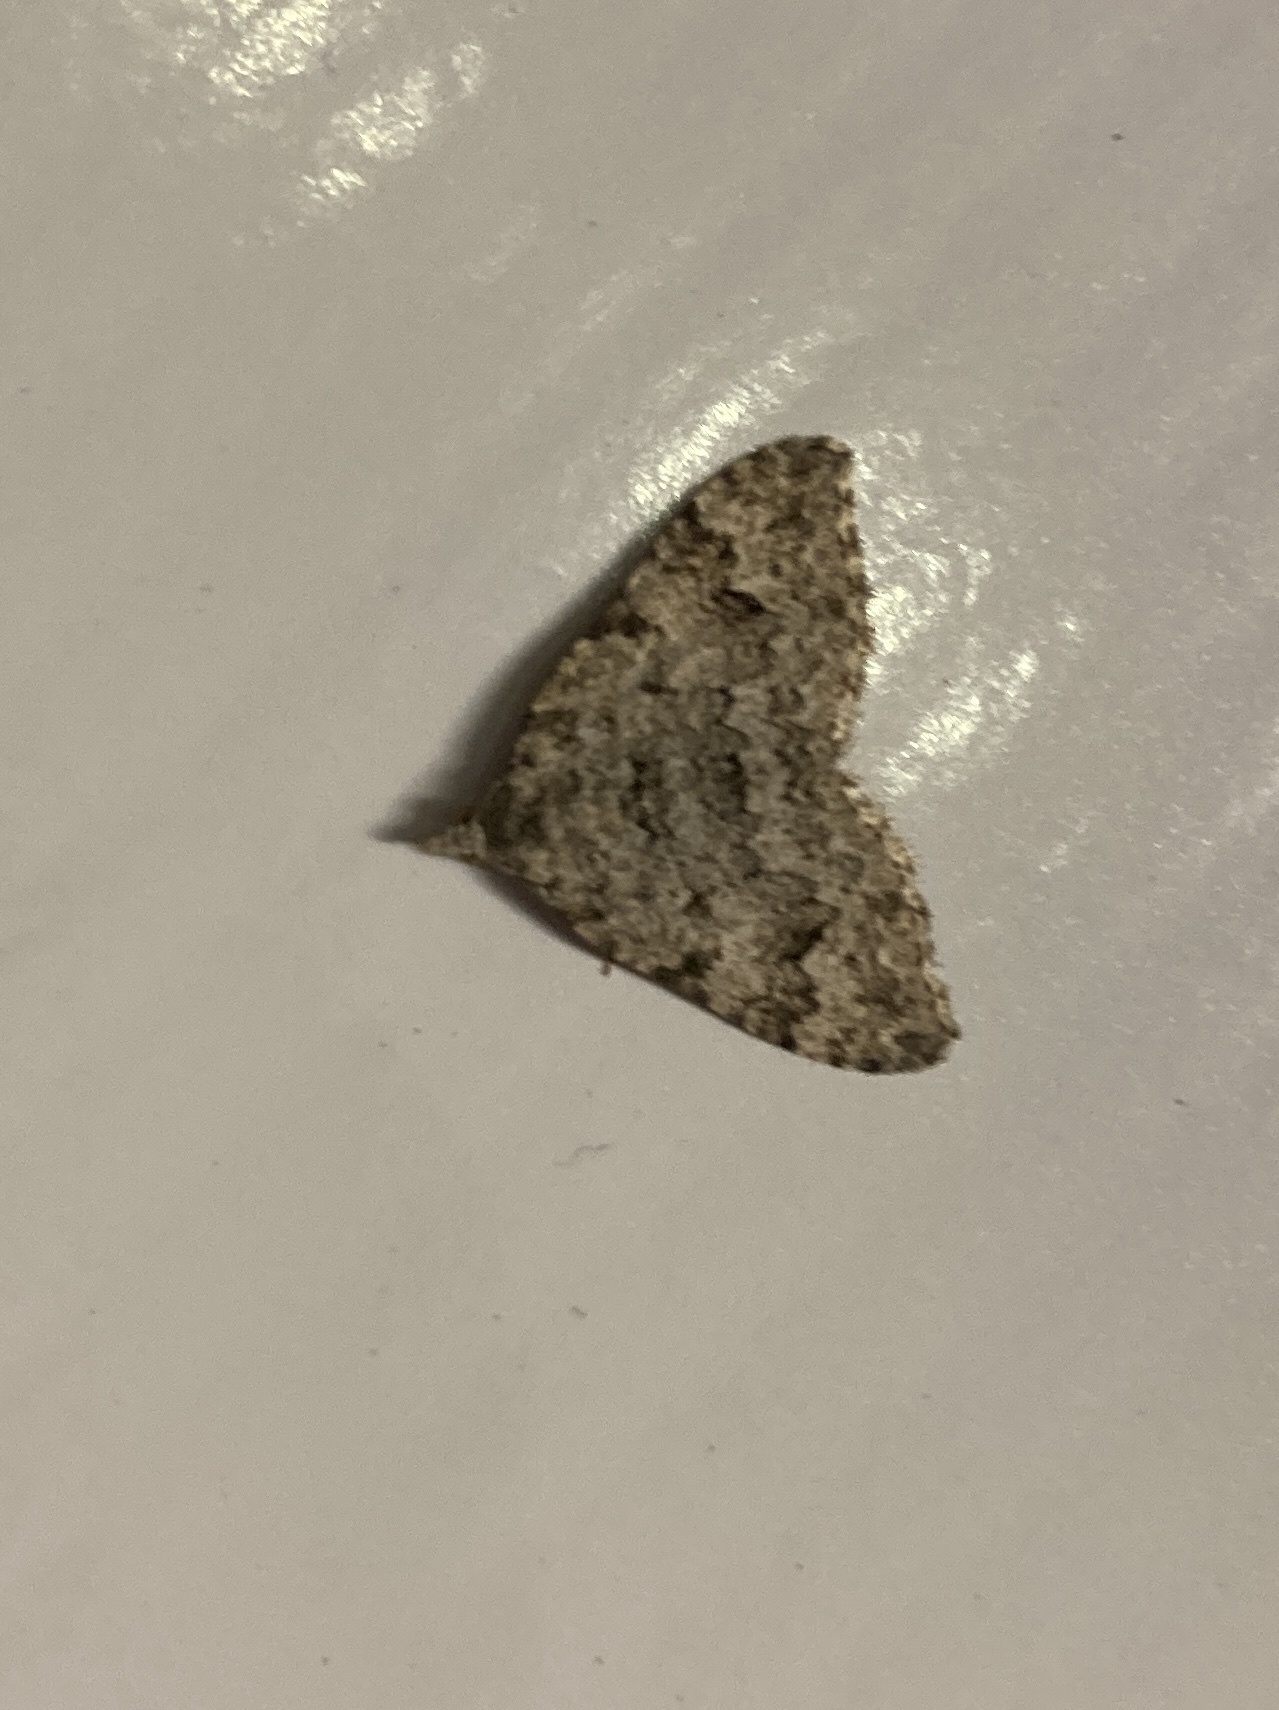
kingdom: Animalia
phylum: Arthropoda
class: Insecta
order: Lepidoptera
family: Geometridae
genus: Helastia
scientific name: Helastia cinerearia
